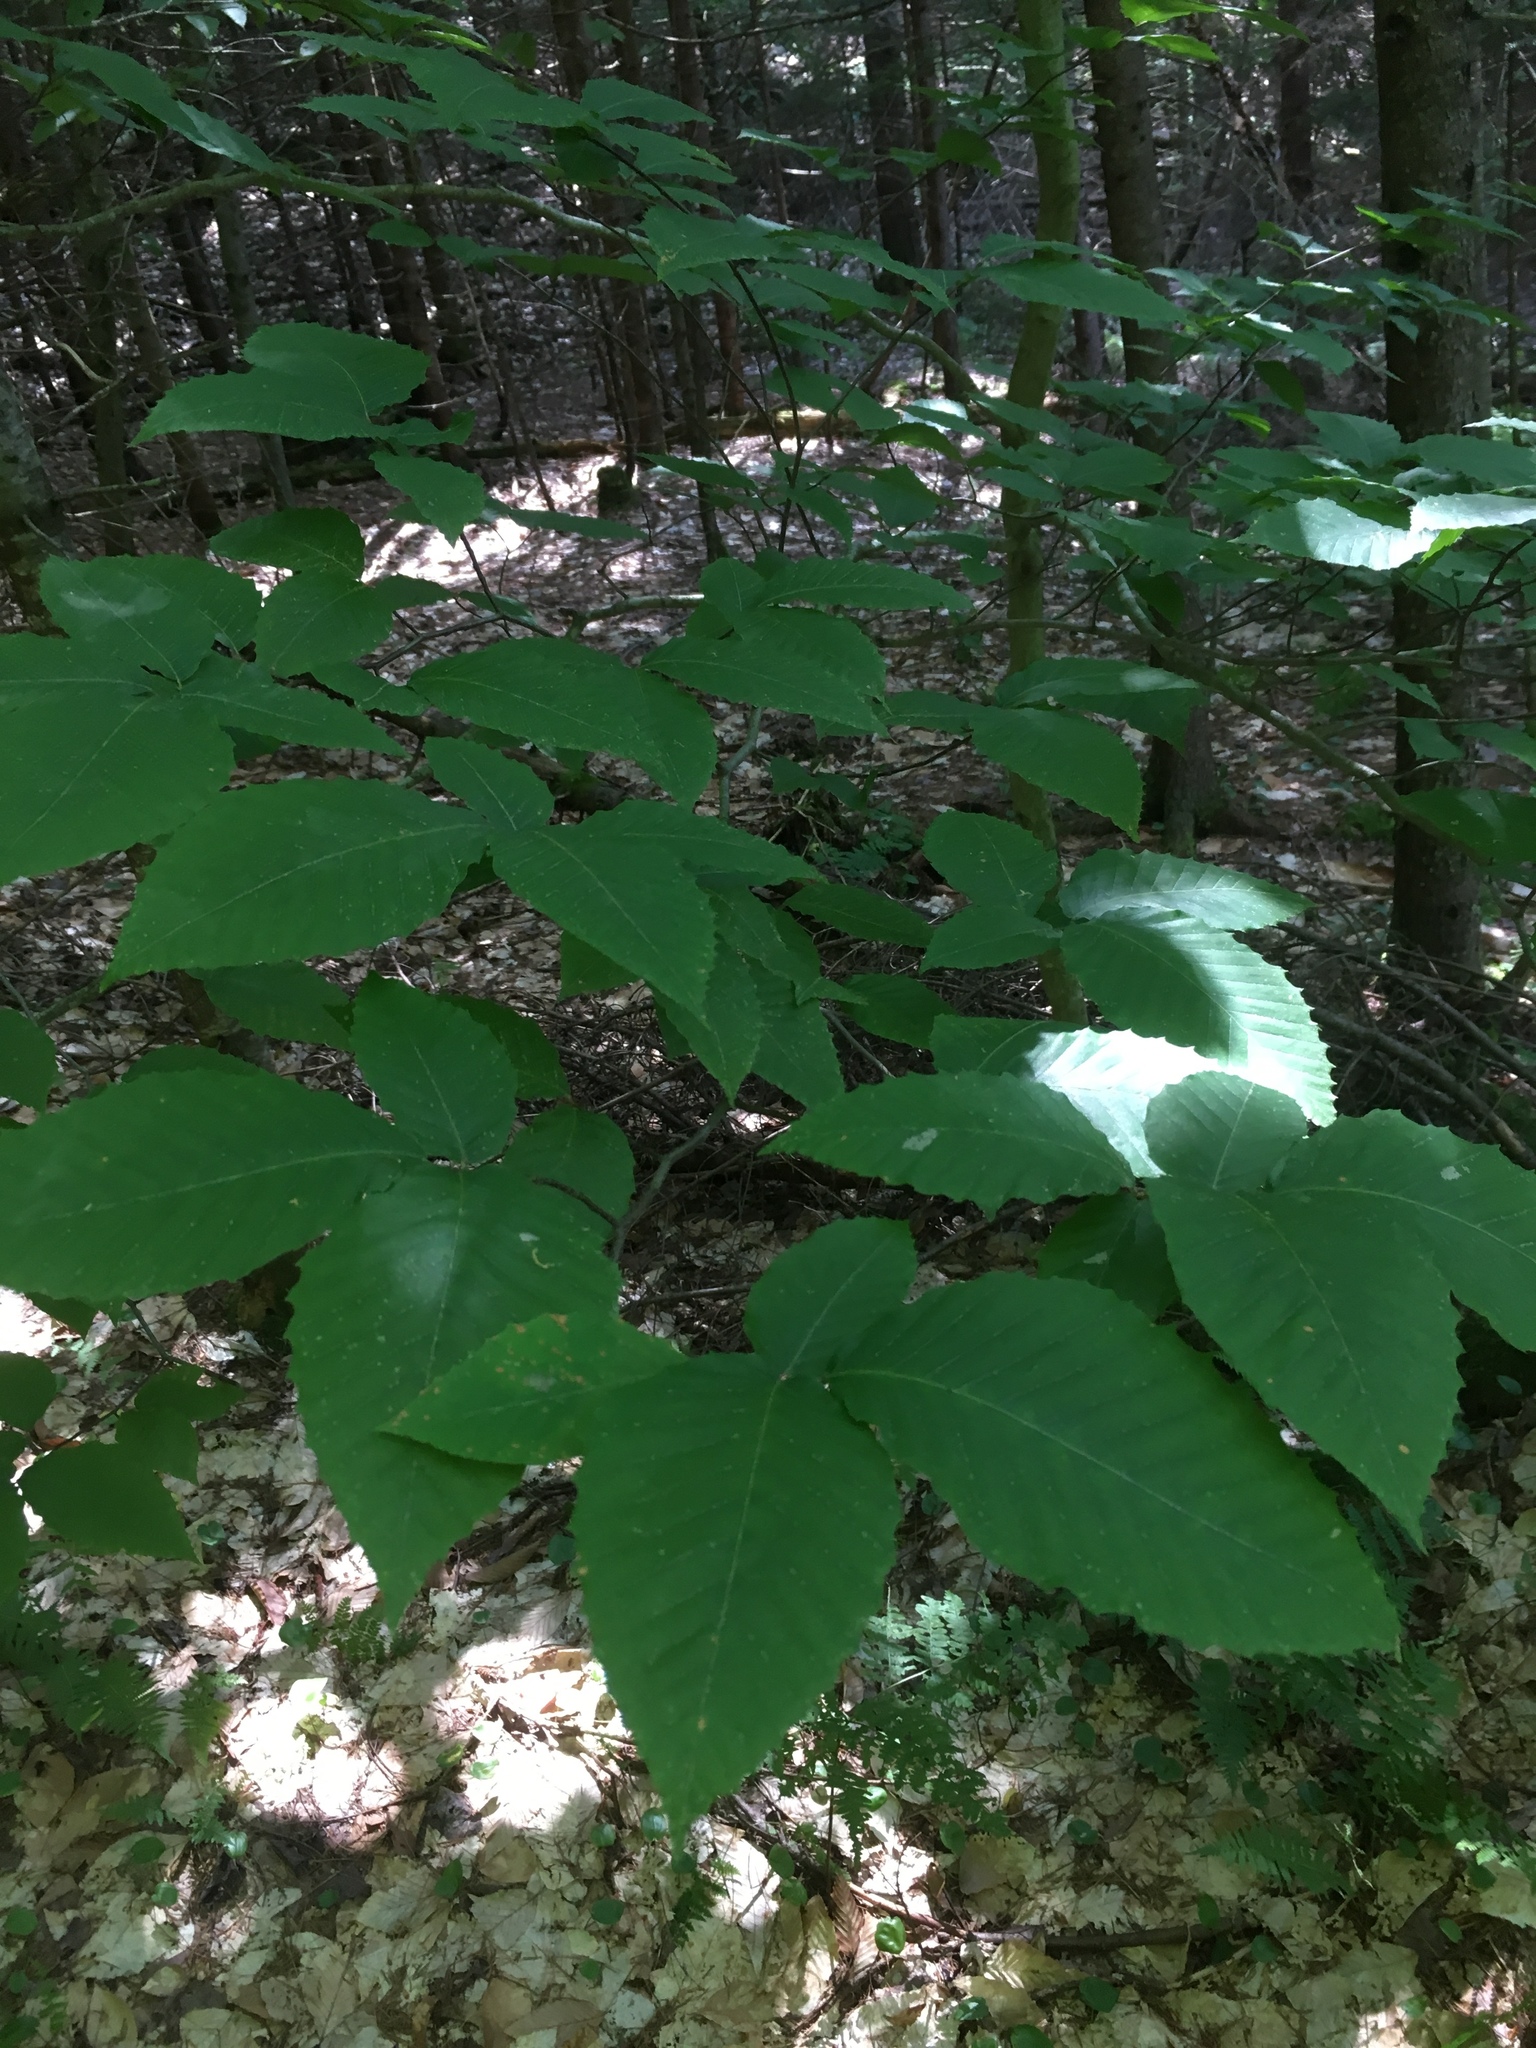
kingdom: Plantae
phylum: Tracheophyta
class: Magnoliopsida
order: Fagales
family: Fagaceae
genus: Fagus
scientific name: Fagus grandifolia
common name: American beech
